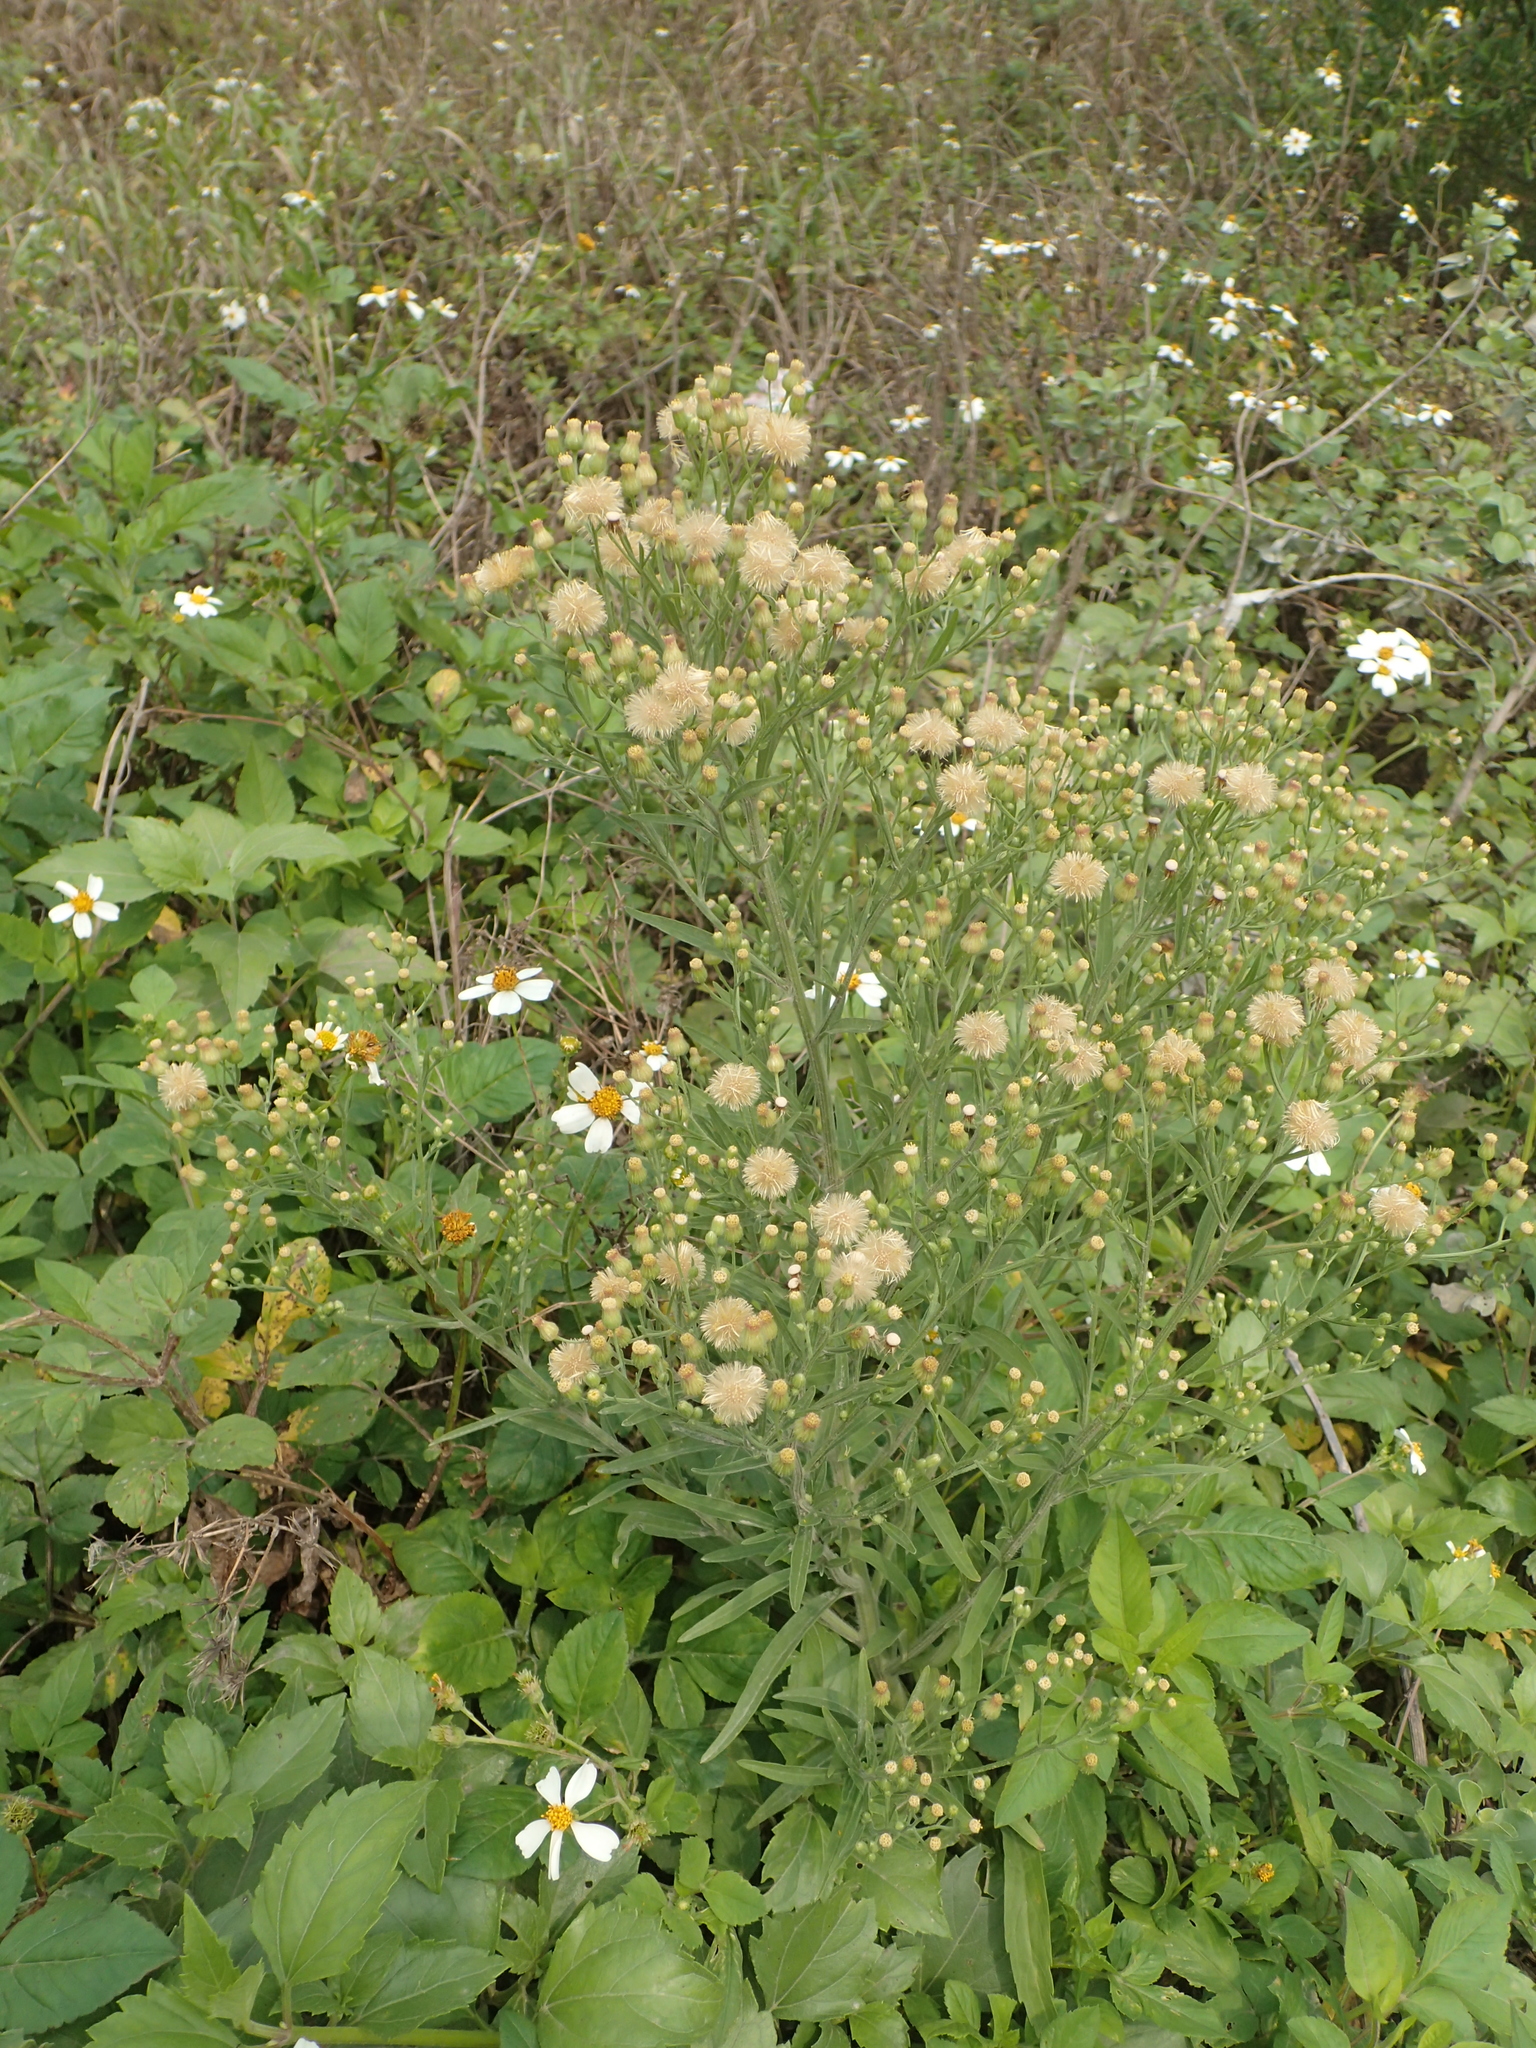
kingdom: Plantae
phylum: Tracheophyta
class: Magnoliopsida
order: Asterales
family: Asteraceae
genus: Erigeron
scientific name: Erigeron sumatrensis
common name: Daisy
